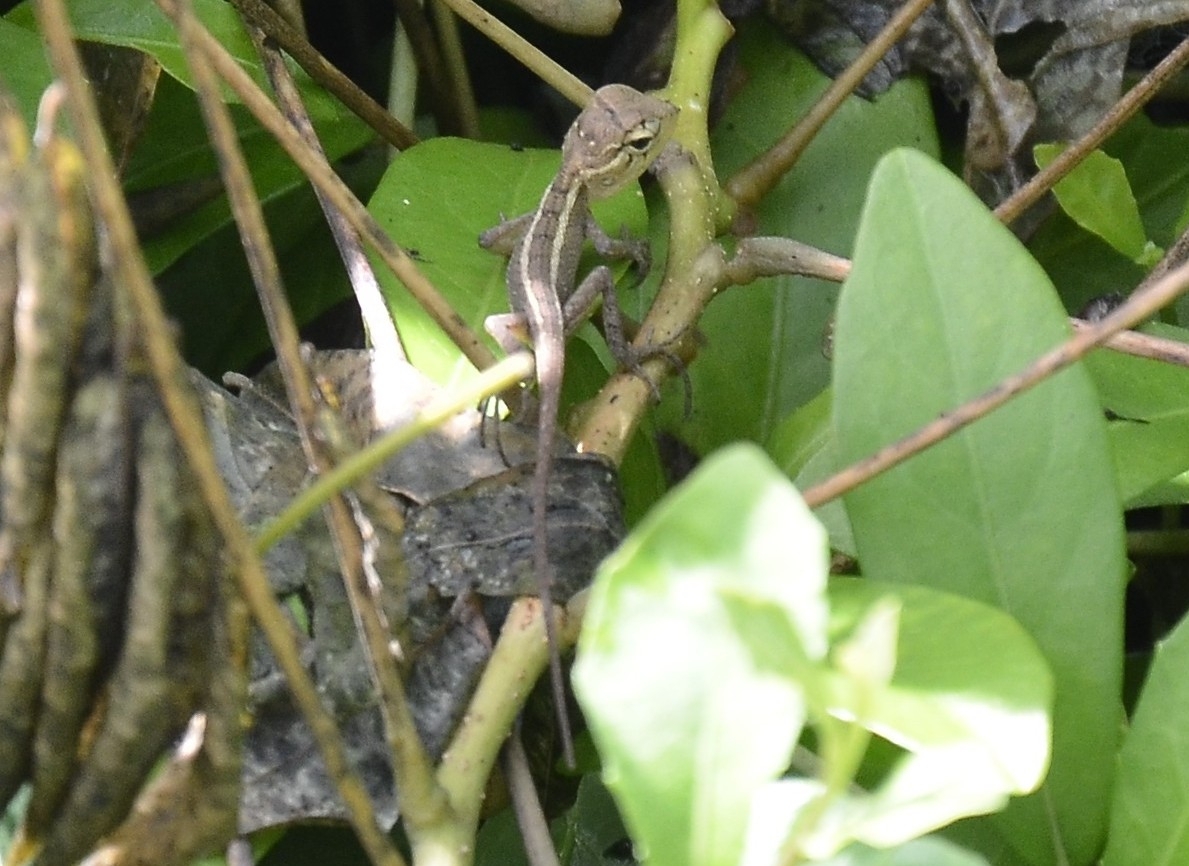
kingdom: Animalia
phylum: Chordata
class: Squamata
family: Agamidae
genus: Calotes
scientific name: Calotes versicolor
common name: Oriental garden lizard
